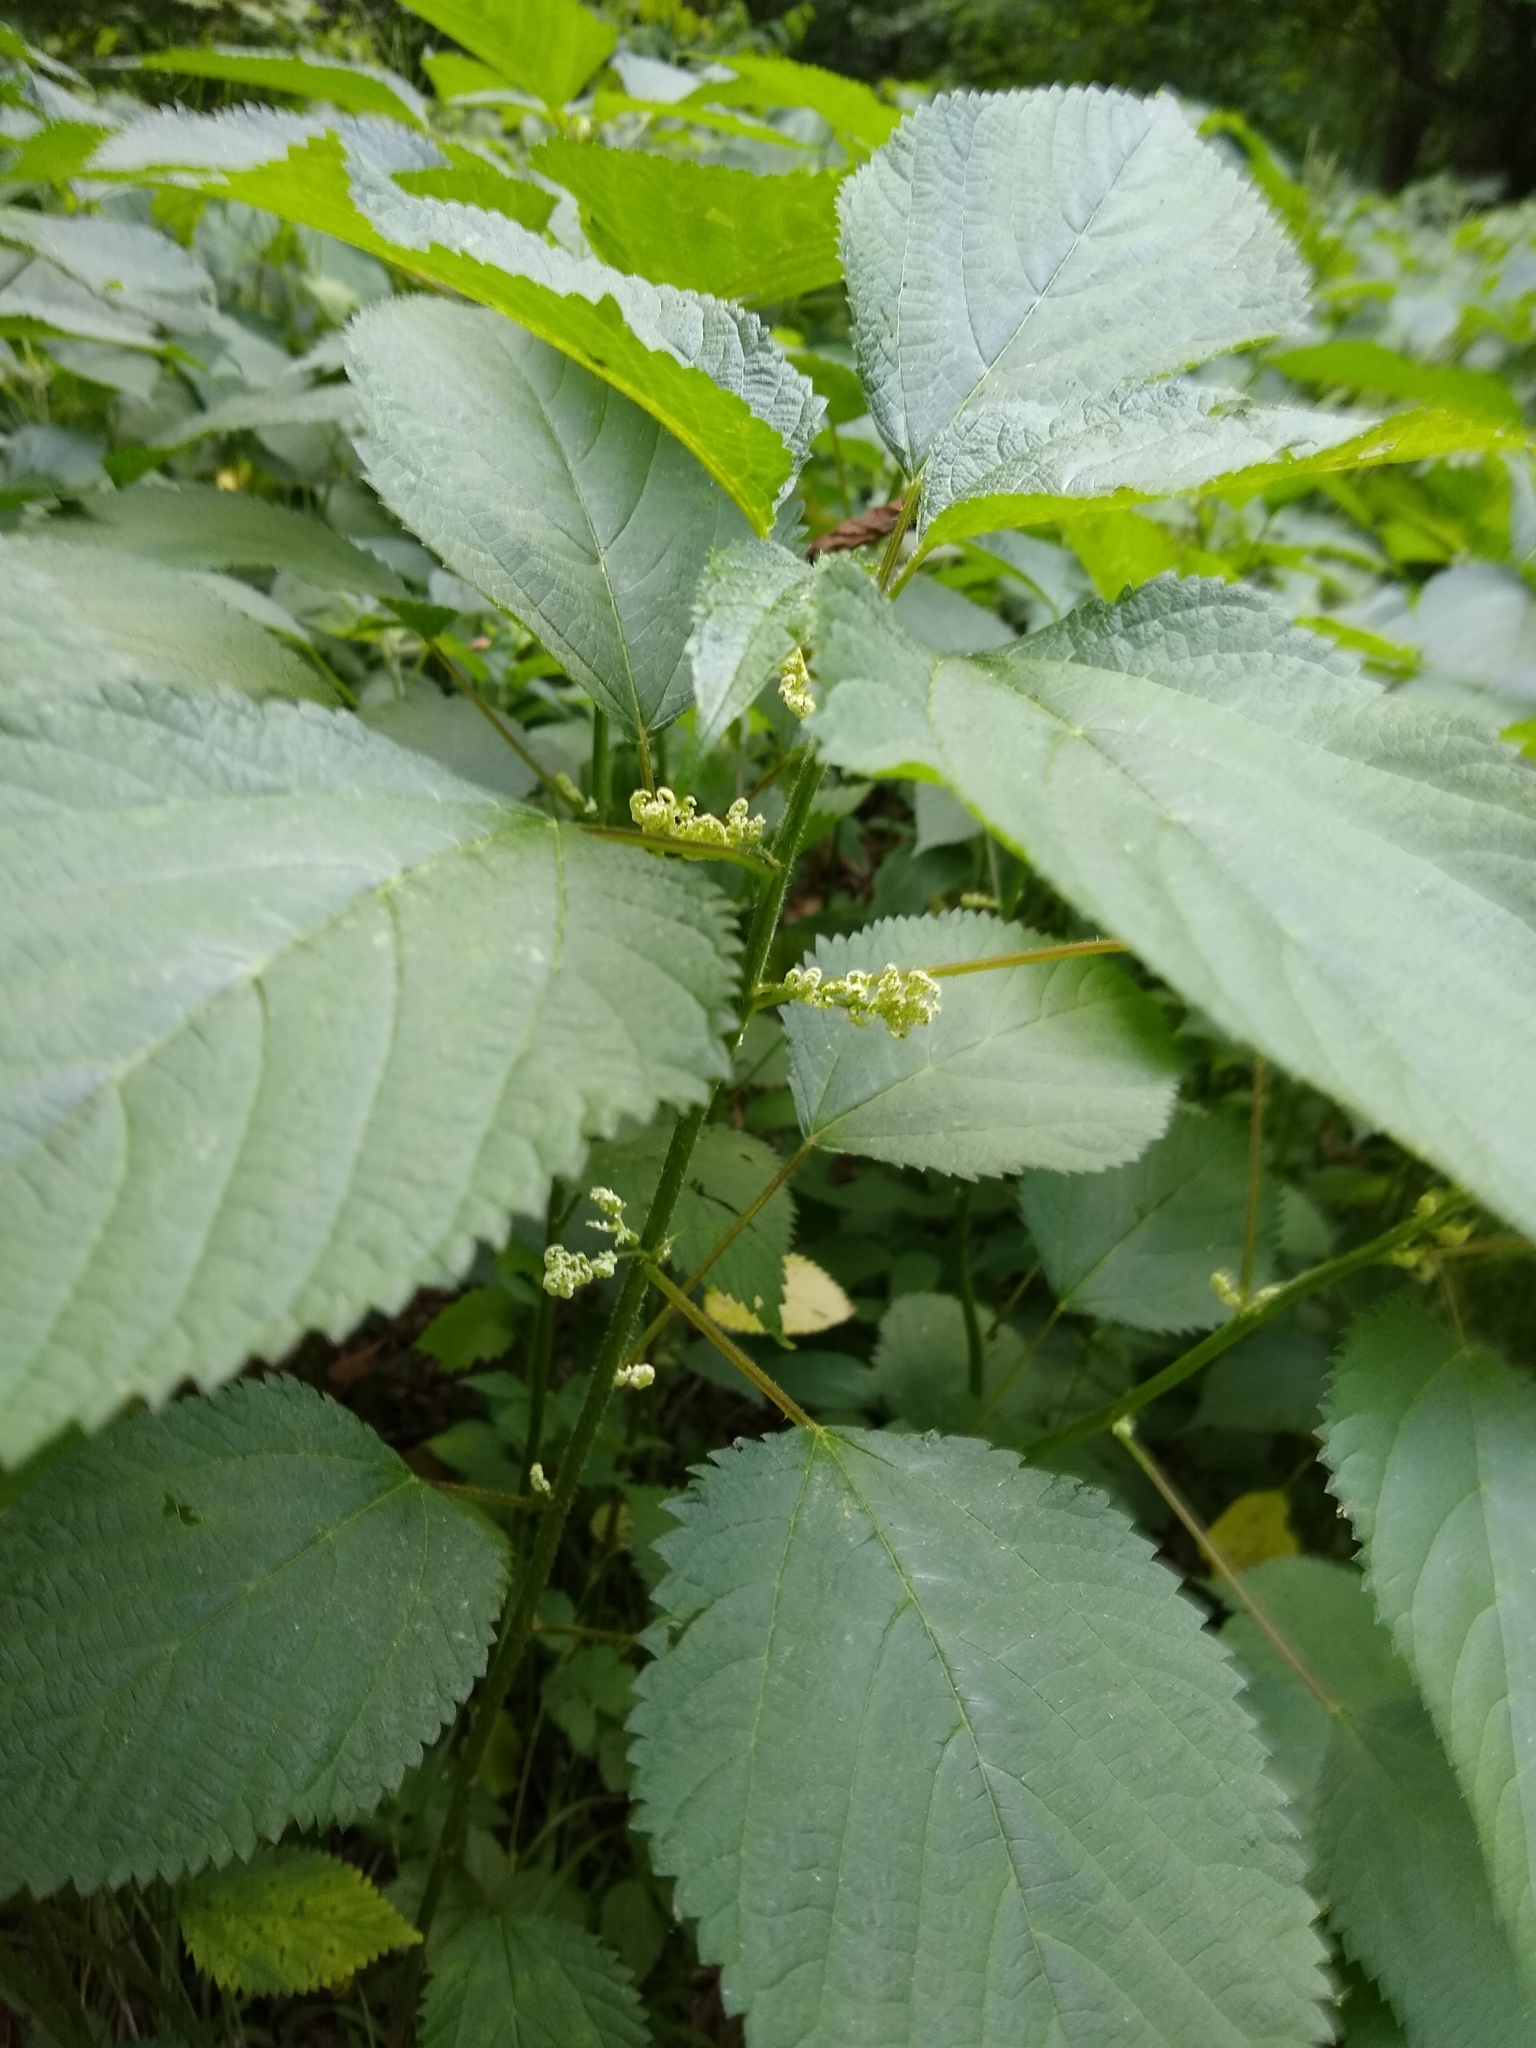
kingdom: Plantae
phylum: Tracheophyta
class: Magnoliopsida
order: Rosales
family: Urticaceae
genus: Laportea
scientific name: Laportea canadensis
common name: Canada nettle
